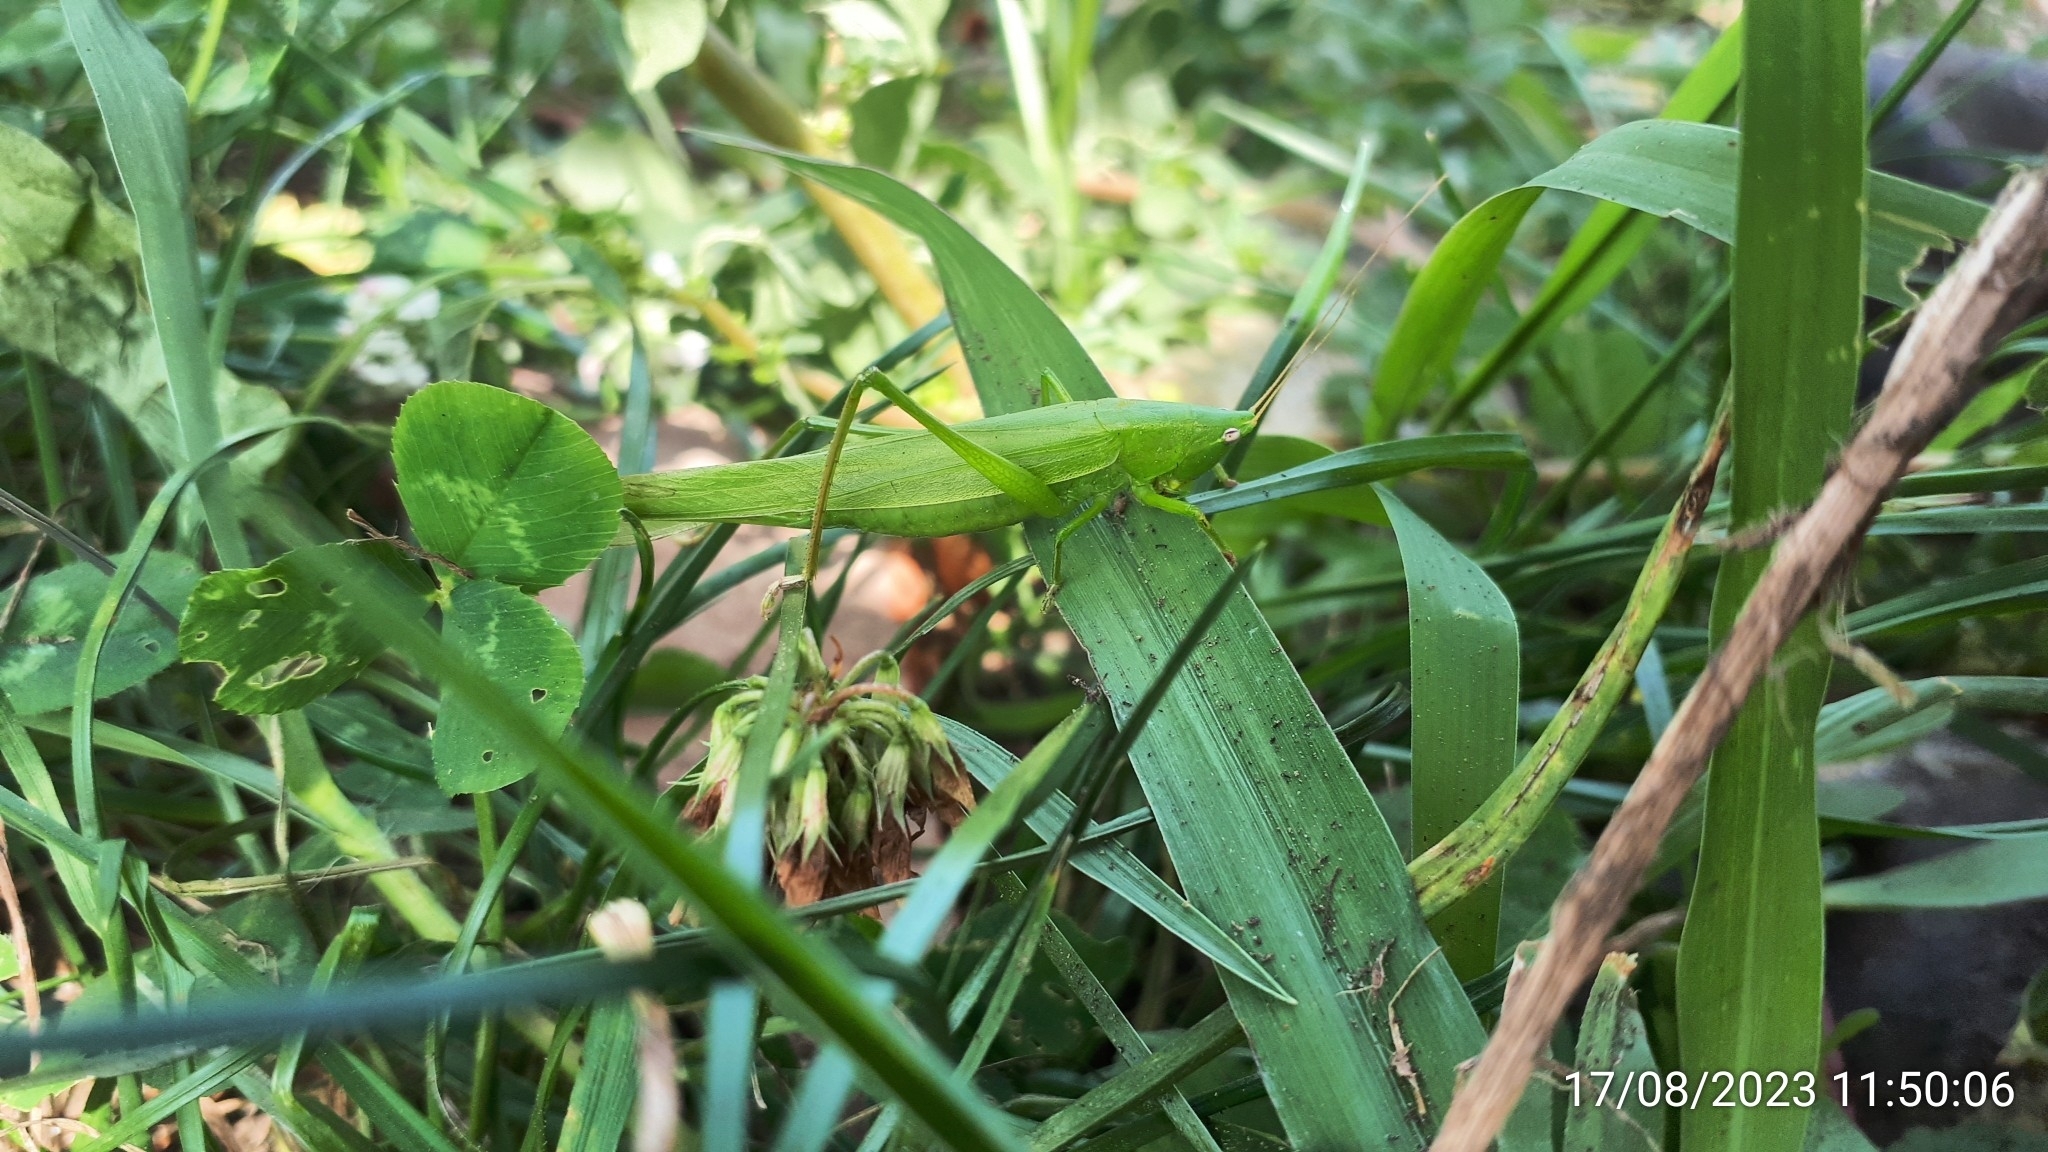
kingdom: Animalia
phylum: Arthropoda
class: Insecta
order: Orthoptera
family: Tettigoniidae
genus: Ruspolia
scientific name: Ruspolia nitidula
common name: Large conehead
